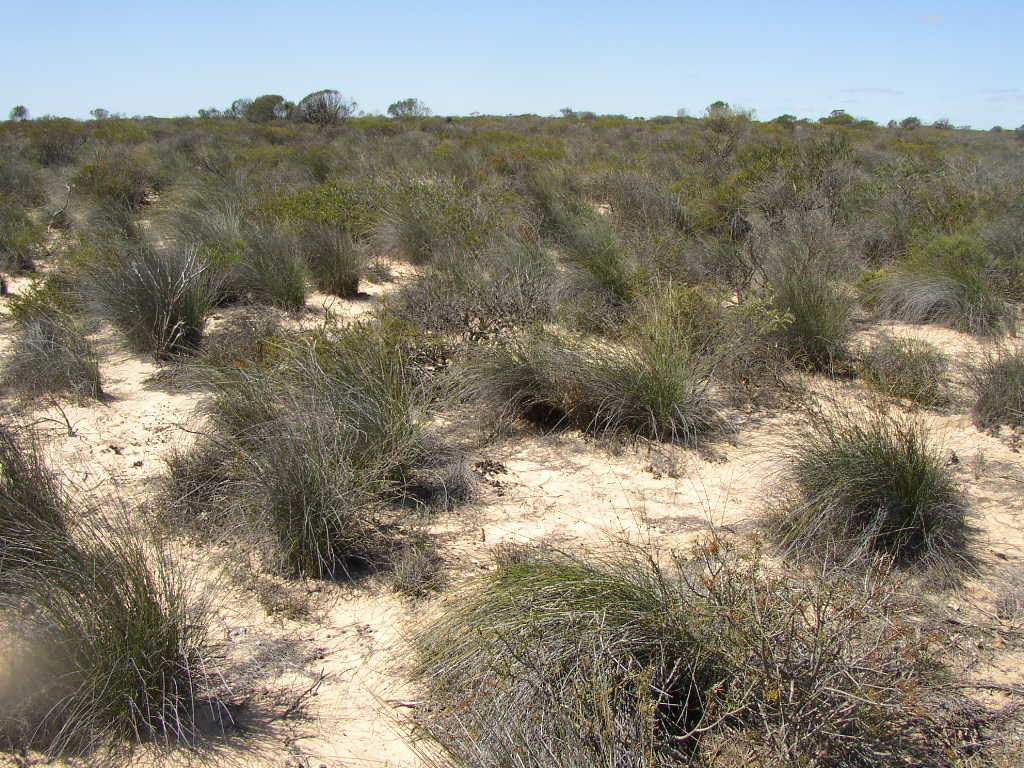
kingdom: Plantae
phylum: Tracheophyta
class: Liliopsida
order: Poales
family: Ecdeiocoleaceae
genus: Ecdeiocolea
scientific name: Ecdeiocolea monostachya
